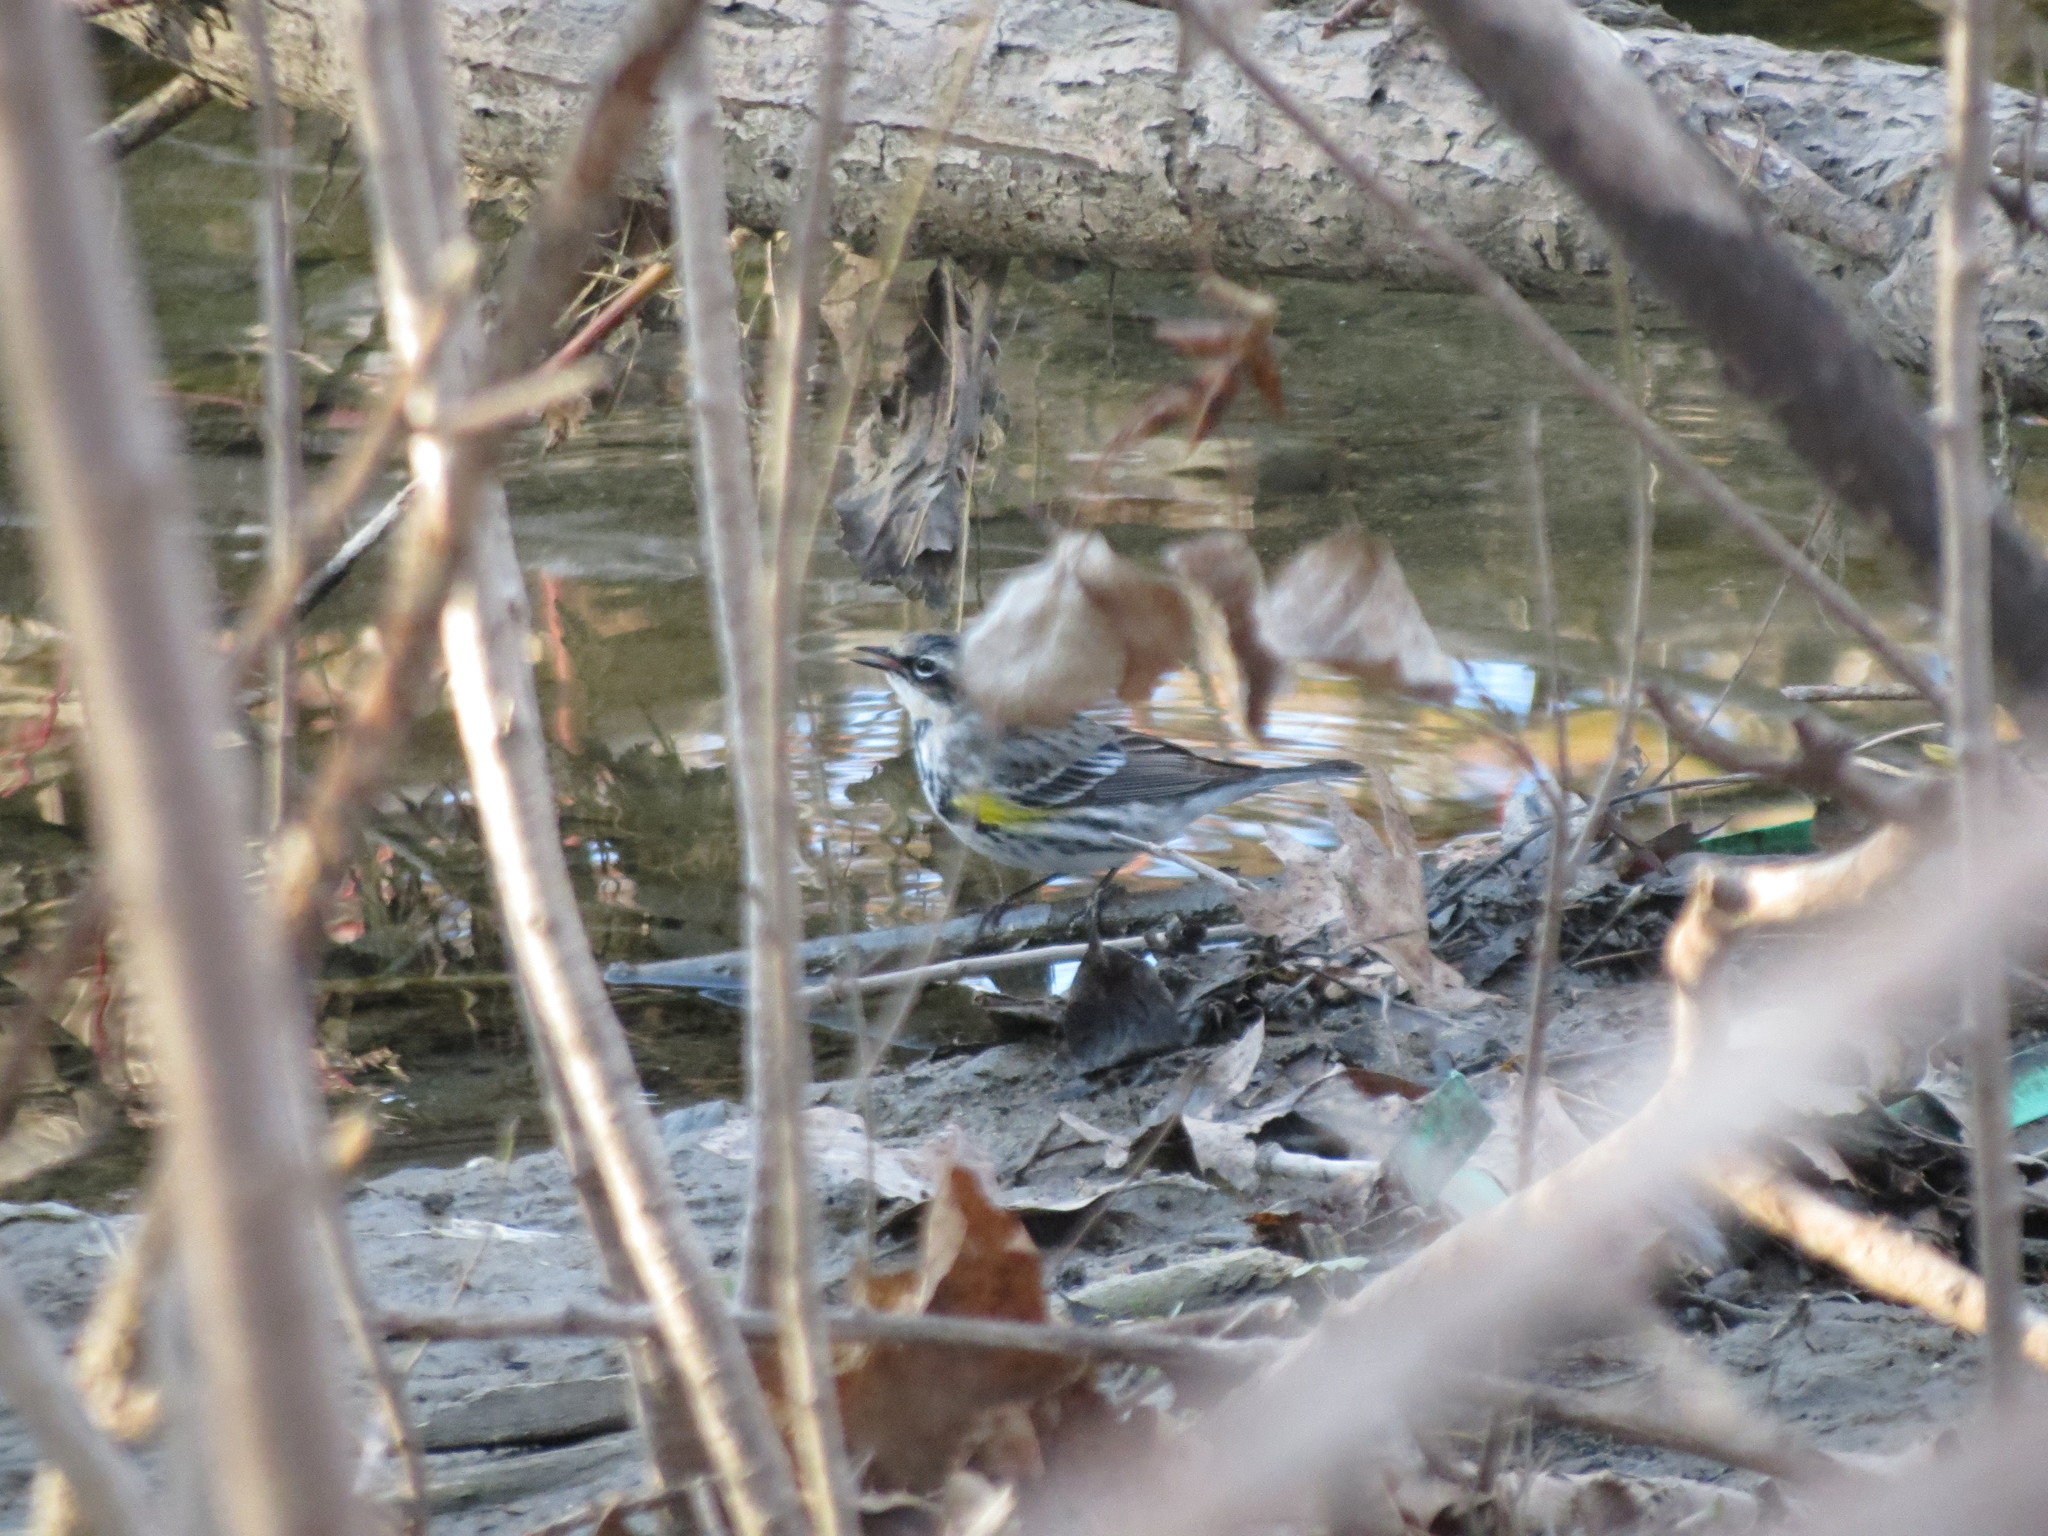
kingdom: Animalia
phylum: Chordata
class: Aves
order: Passeriformes
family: Parulidae
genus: Setophaga
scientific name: Setophaga coronata
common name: Myrtle warbler
